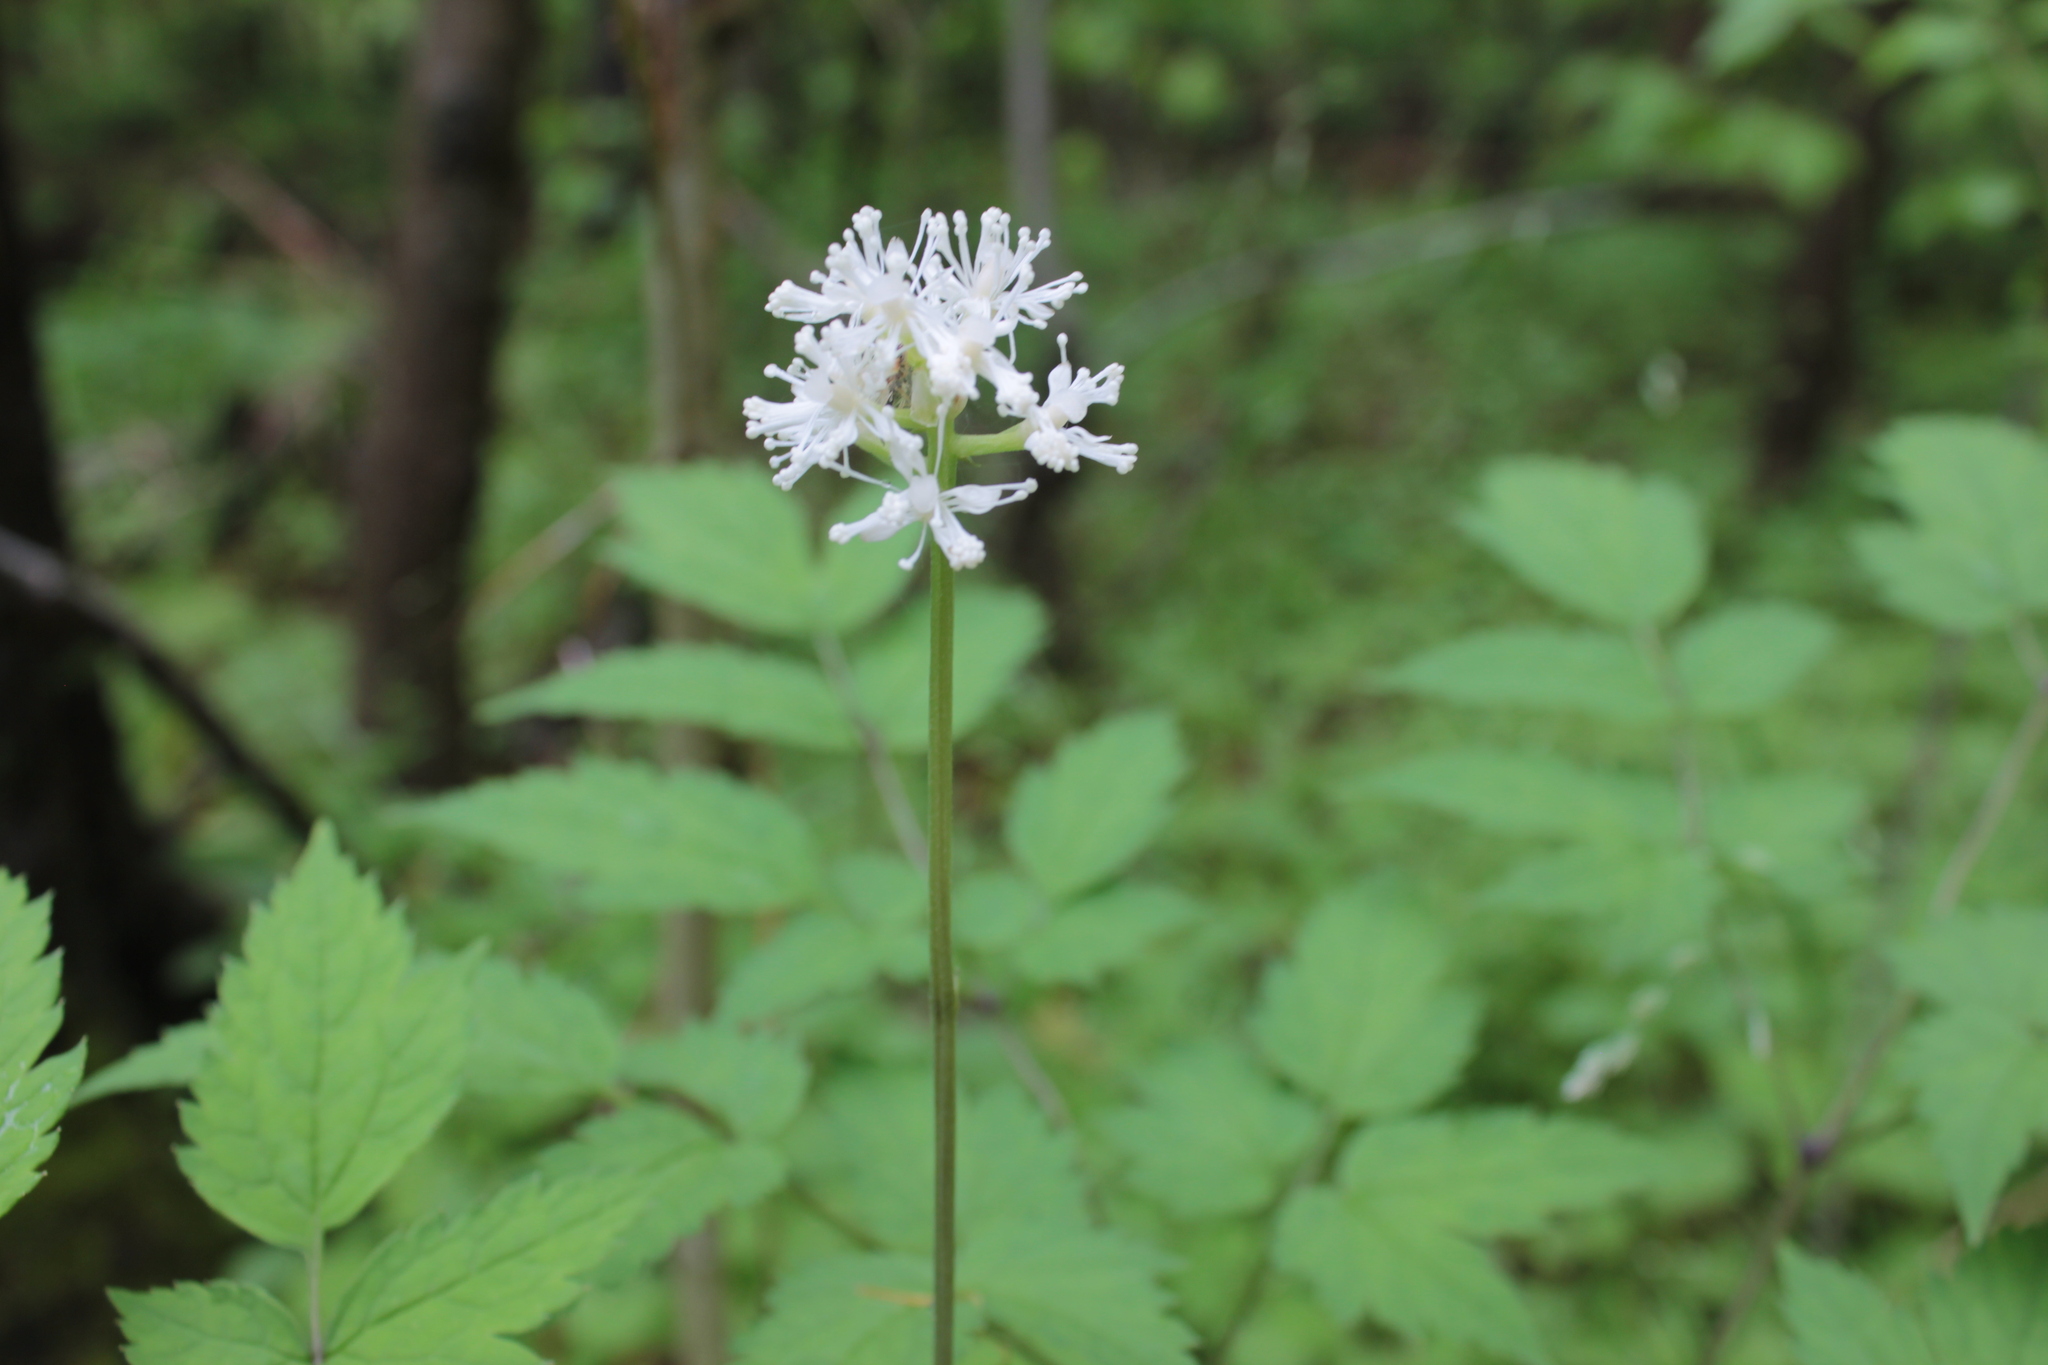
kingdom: Plantae
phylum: Tracheophyta
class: Magnoliopsida
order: Ranunculales
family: Ranunculaceae
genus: Actaea
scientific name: Actaea pachypoda
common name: Doll's-eyes
